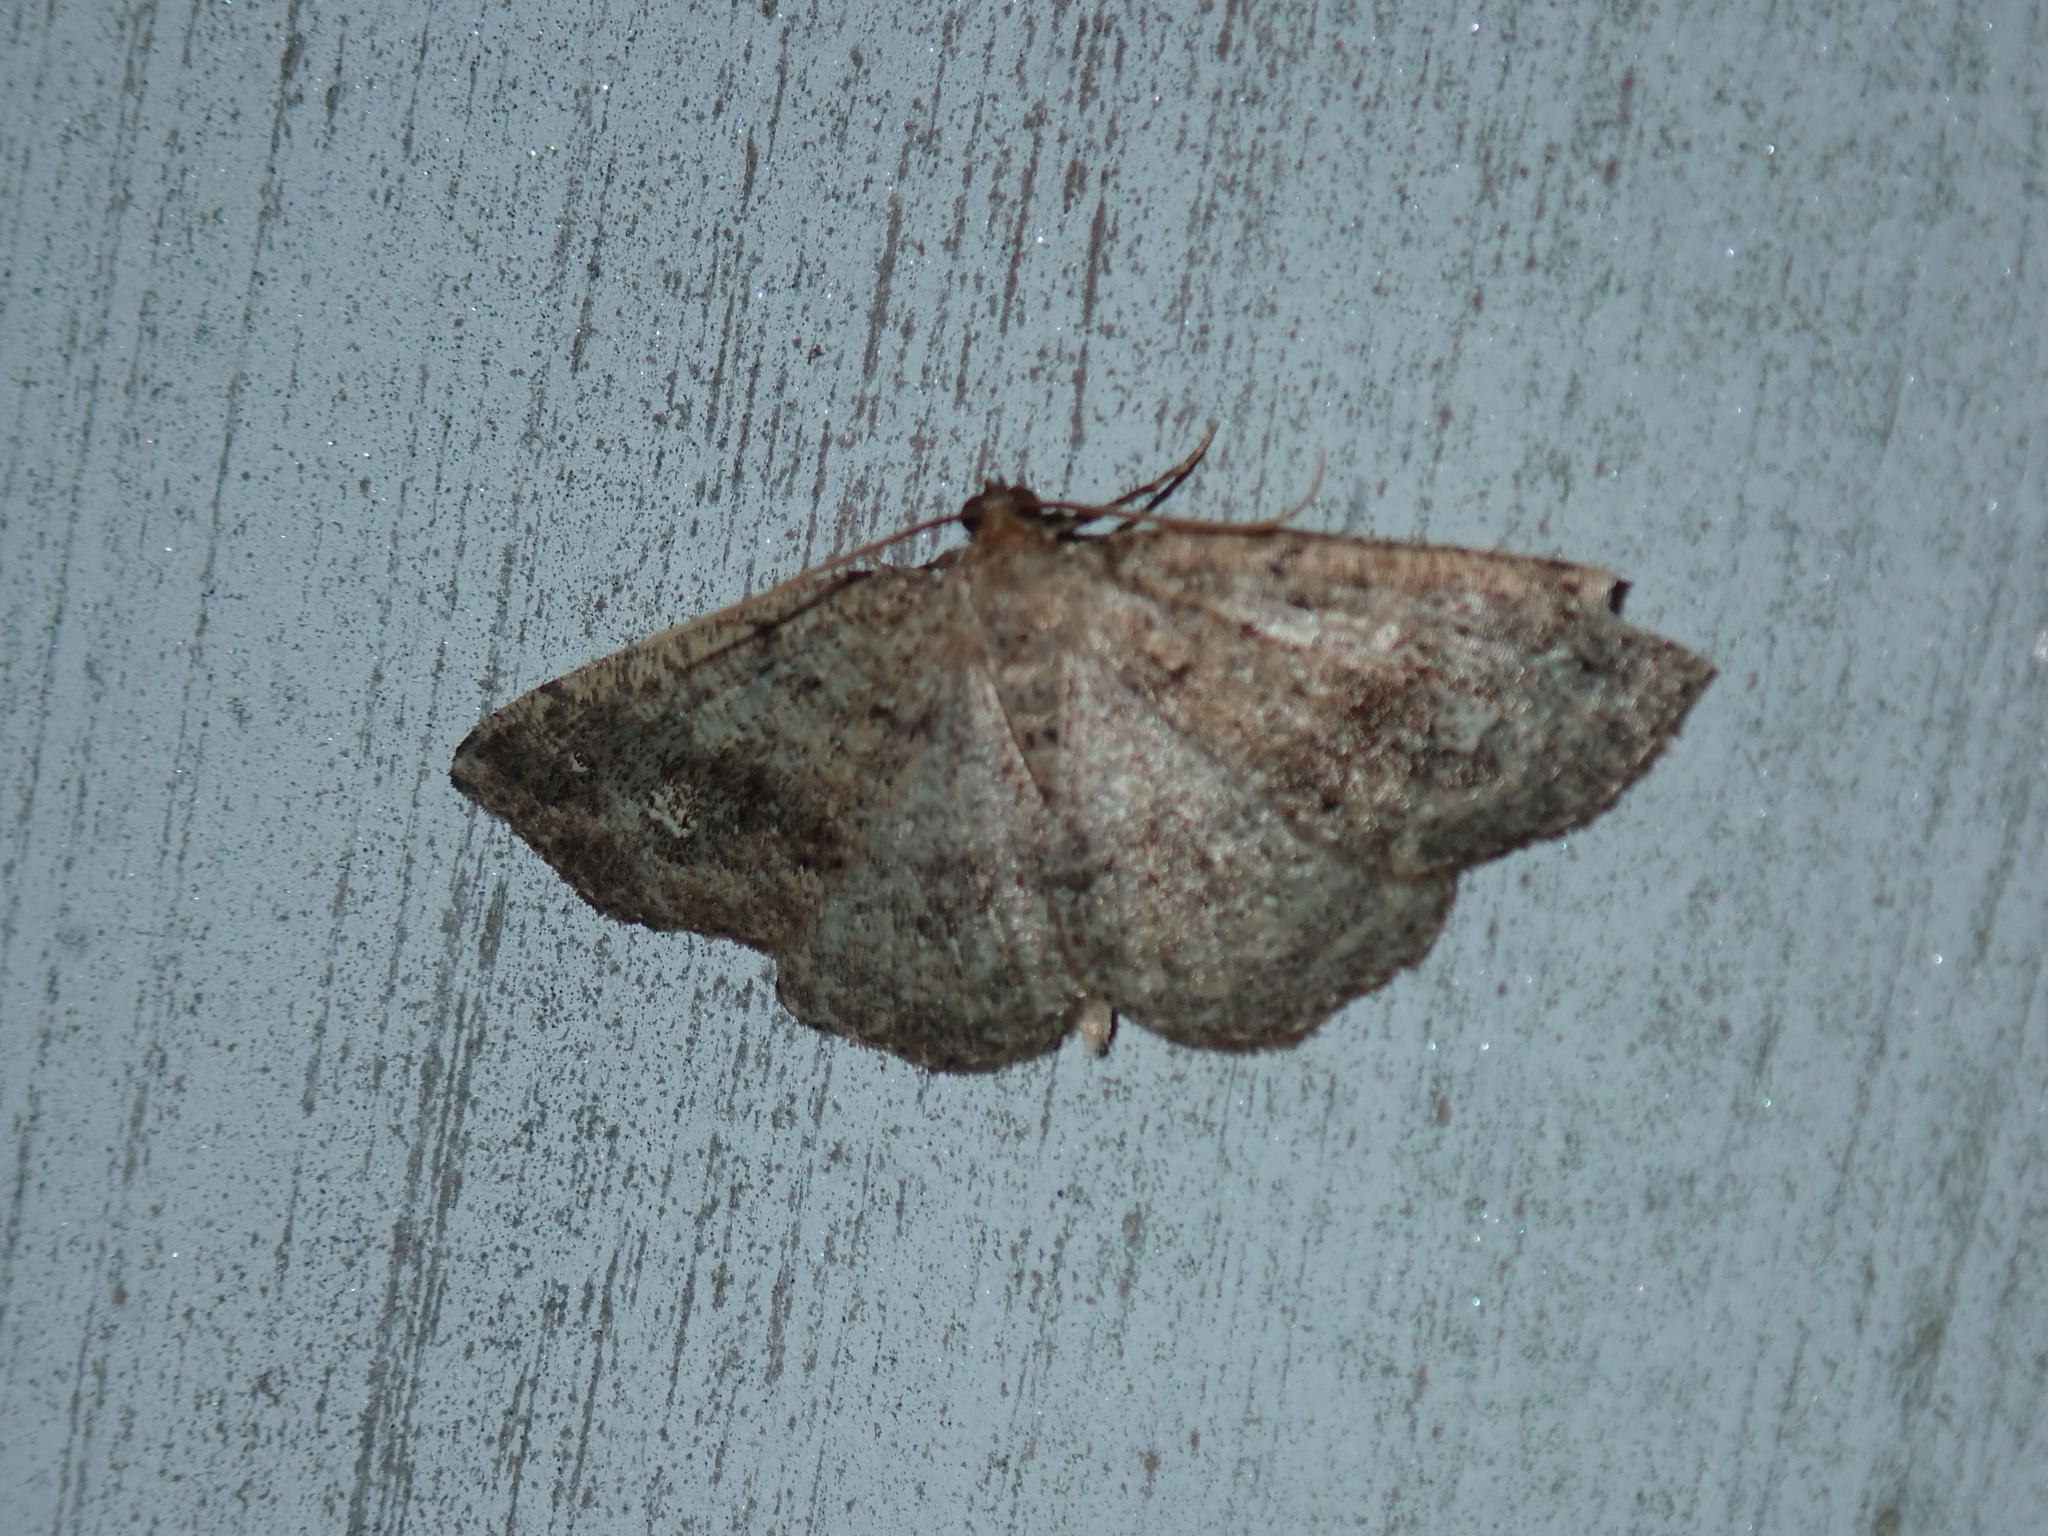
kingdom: Animalia
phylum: Arthropoda
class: Insecta
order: Lepidoptera
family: Geometridae
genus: Homochlodes
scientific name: Homochlodes fritillaria
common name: Pale homochlodes
